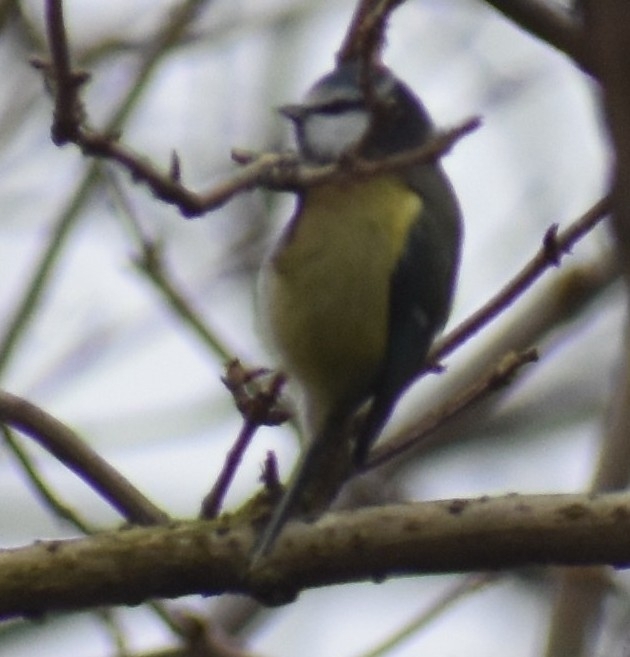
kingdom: Animalia
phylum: Chordata
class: Aves
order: Passeriformes
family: Paridae
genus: Cyanistes
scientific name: Cyanistes caeruleus
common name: Eurasian blue tit
